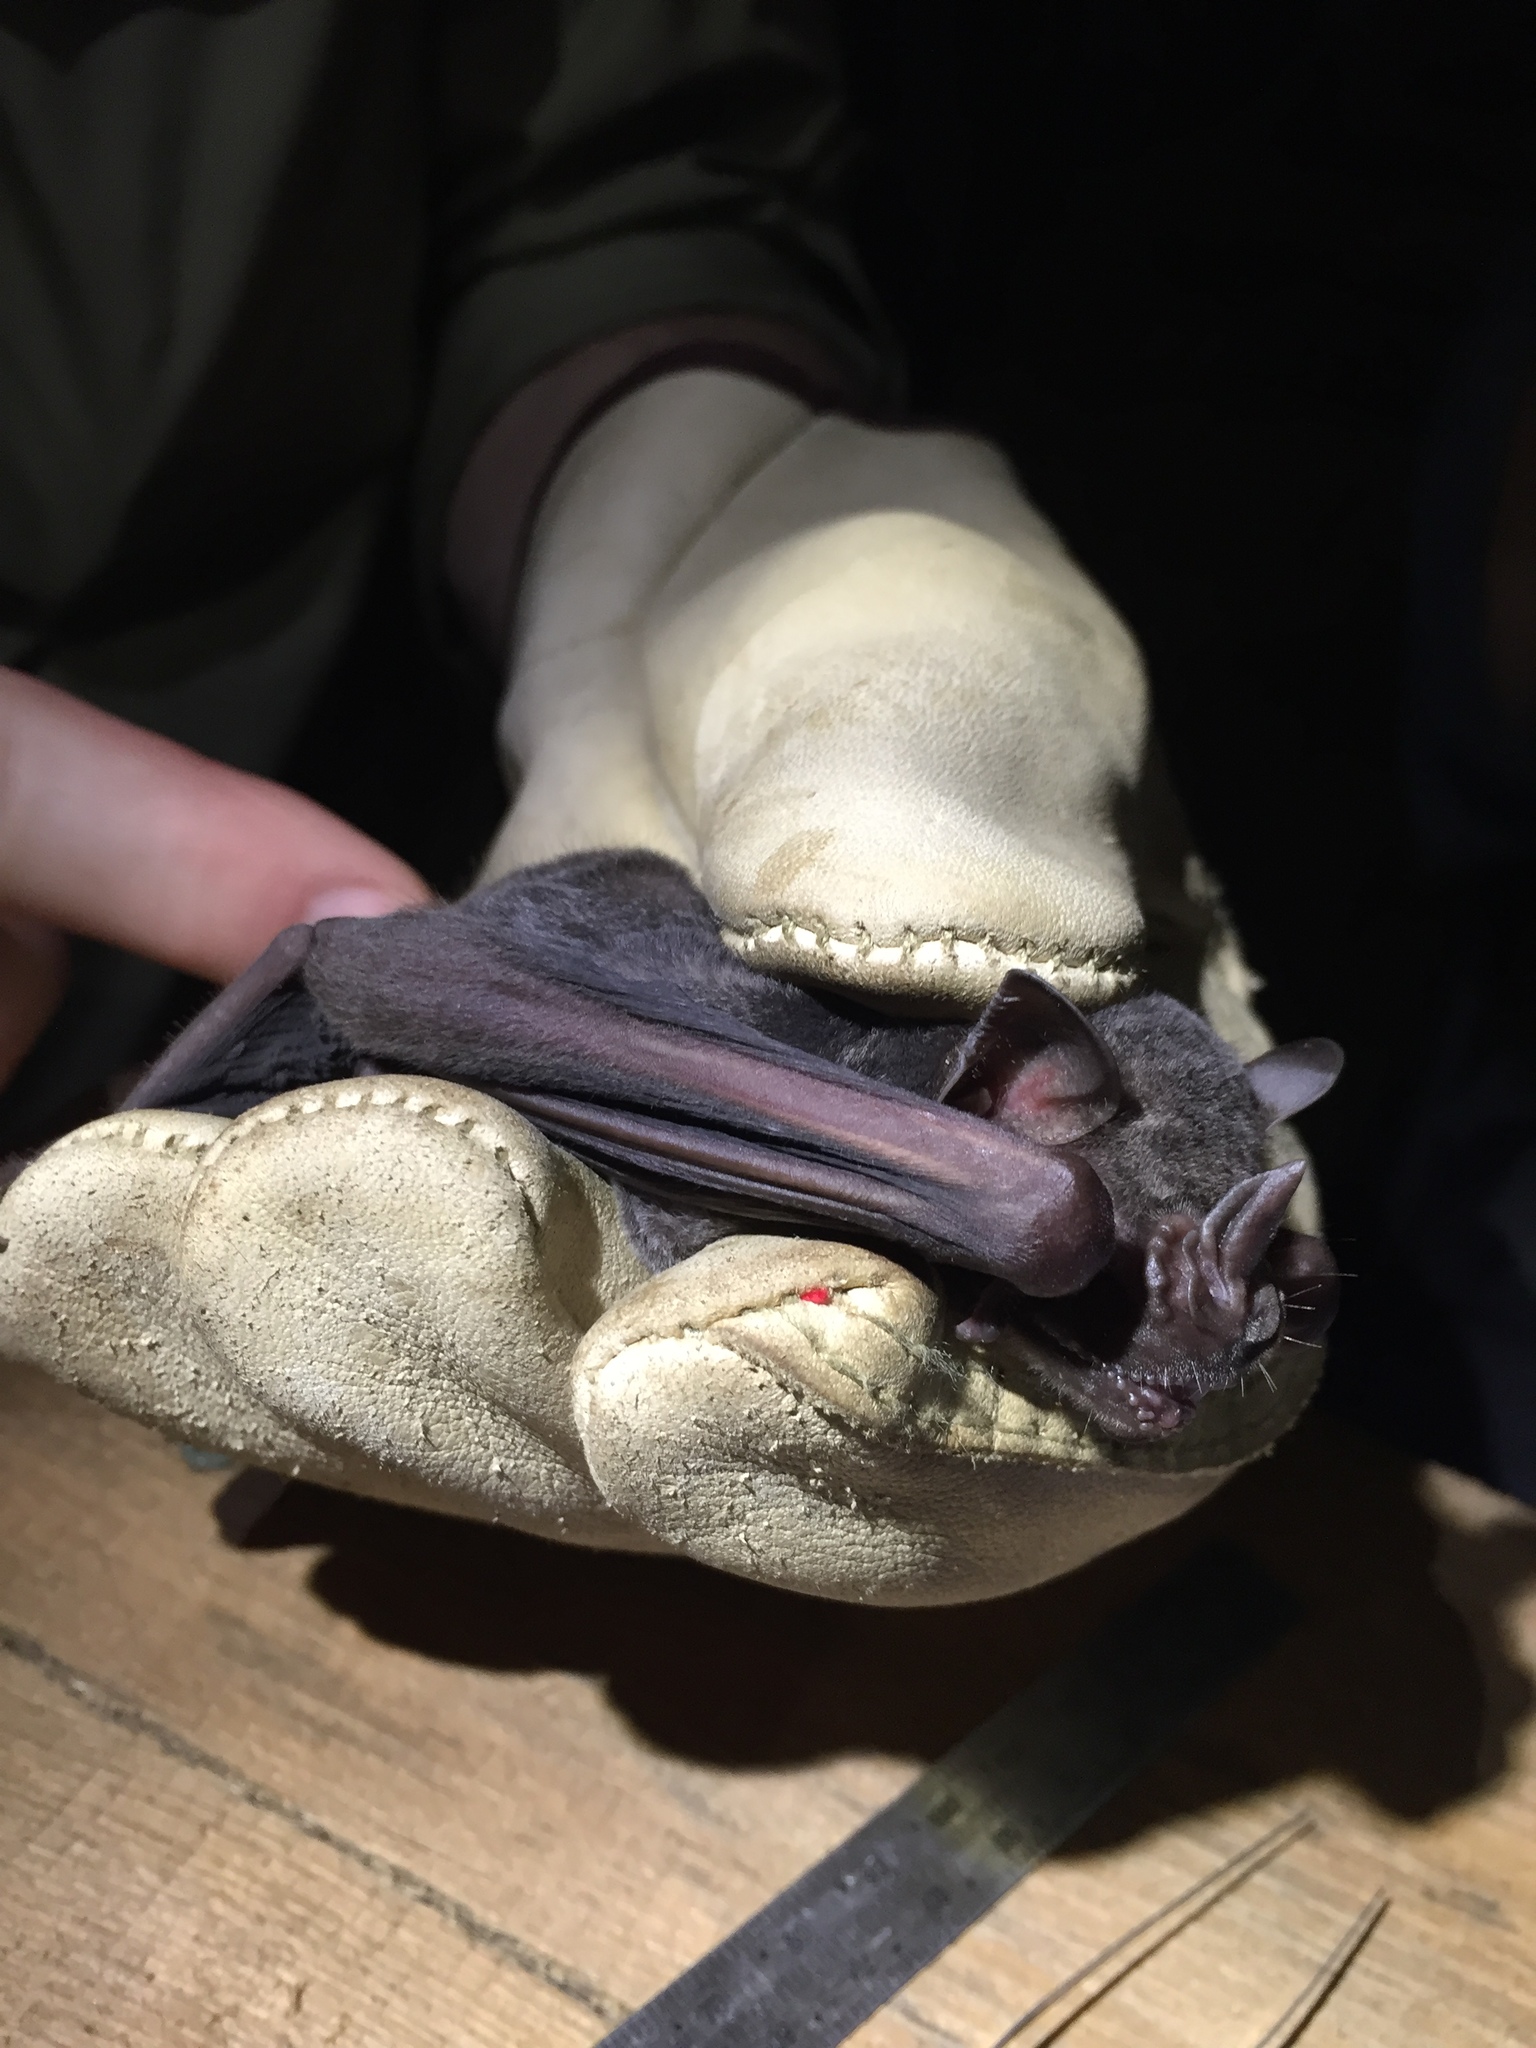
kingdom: Animalia
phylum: Chordata
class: Mammalia
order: Chiroptera
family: Phyllostomidae
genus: Artibeus
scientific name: Artibeus jamaicensis
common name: Jamaican fruit-eating bat
